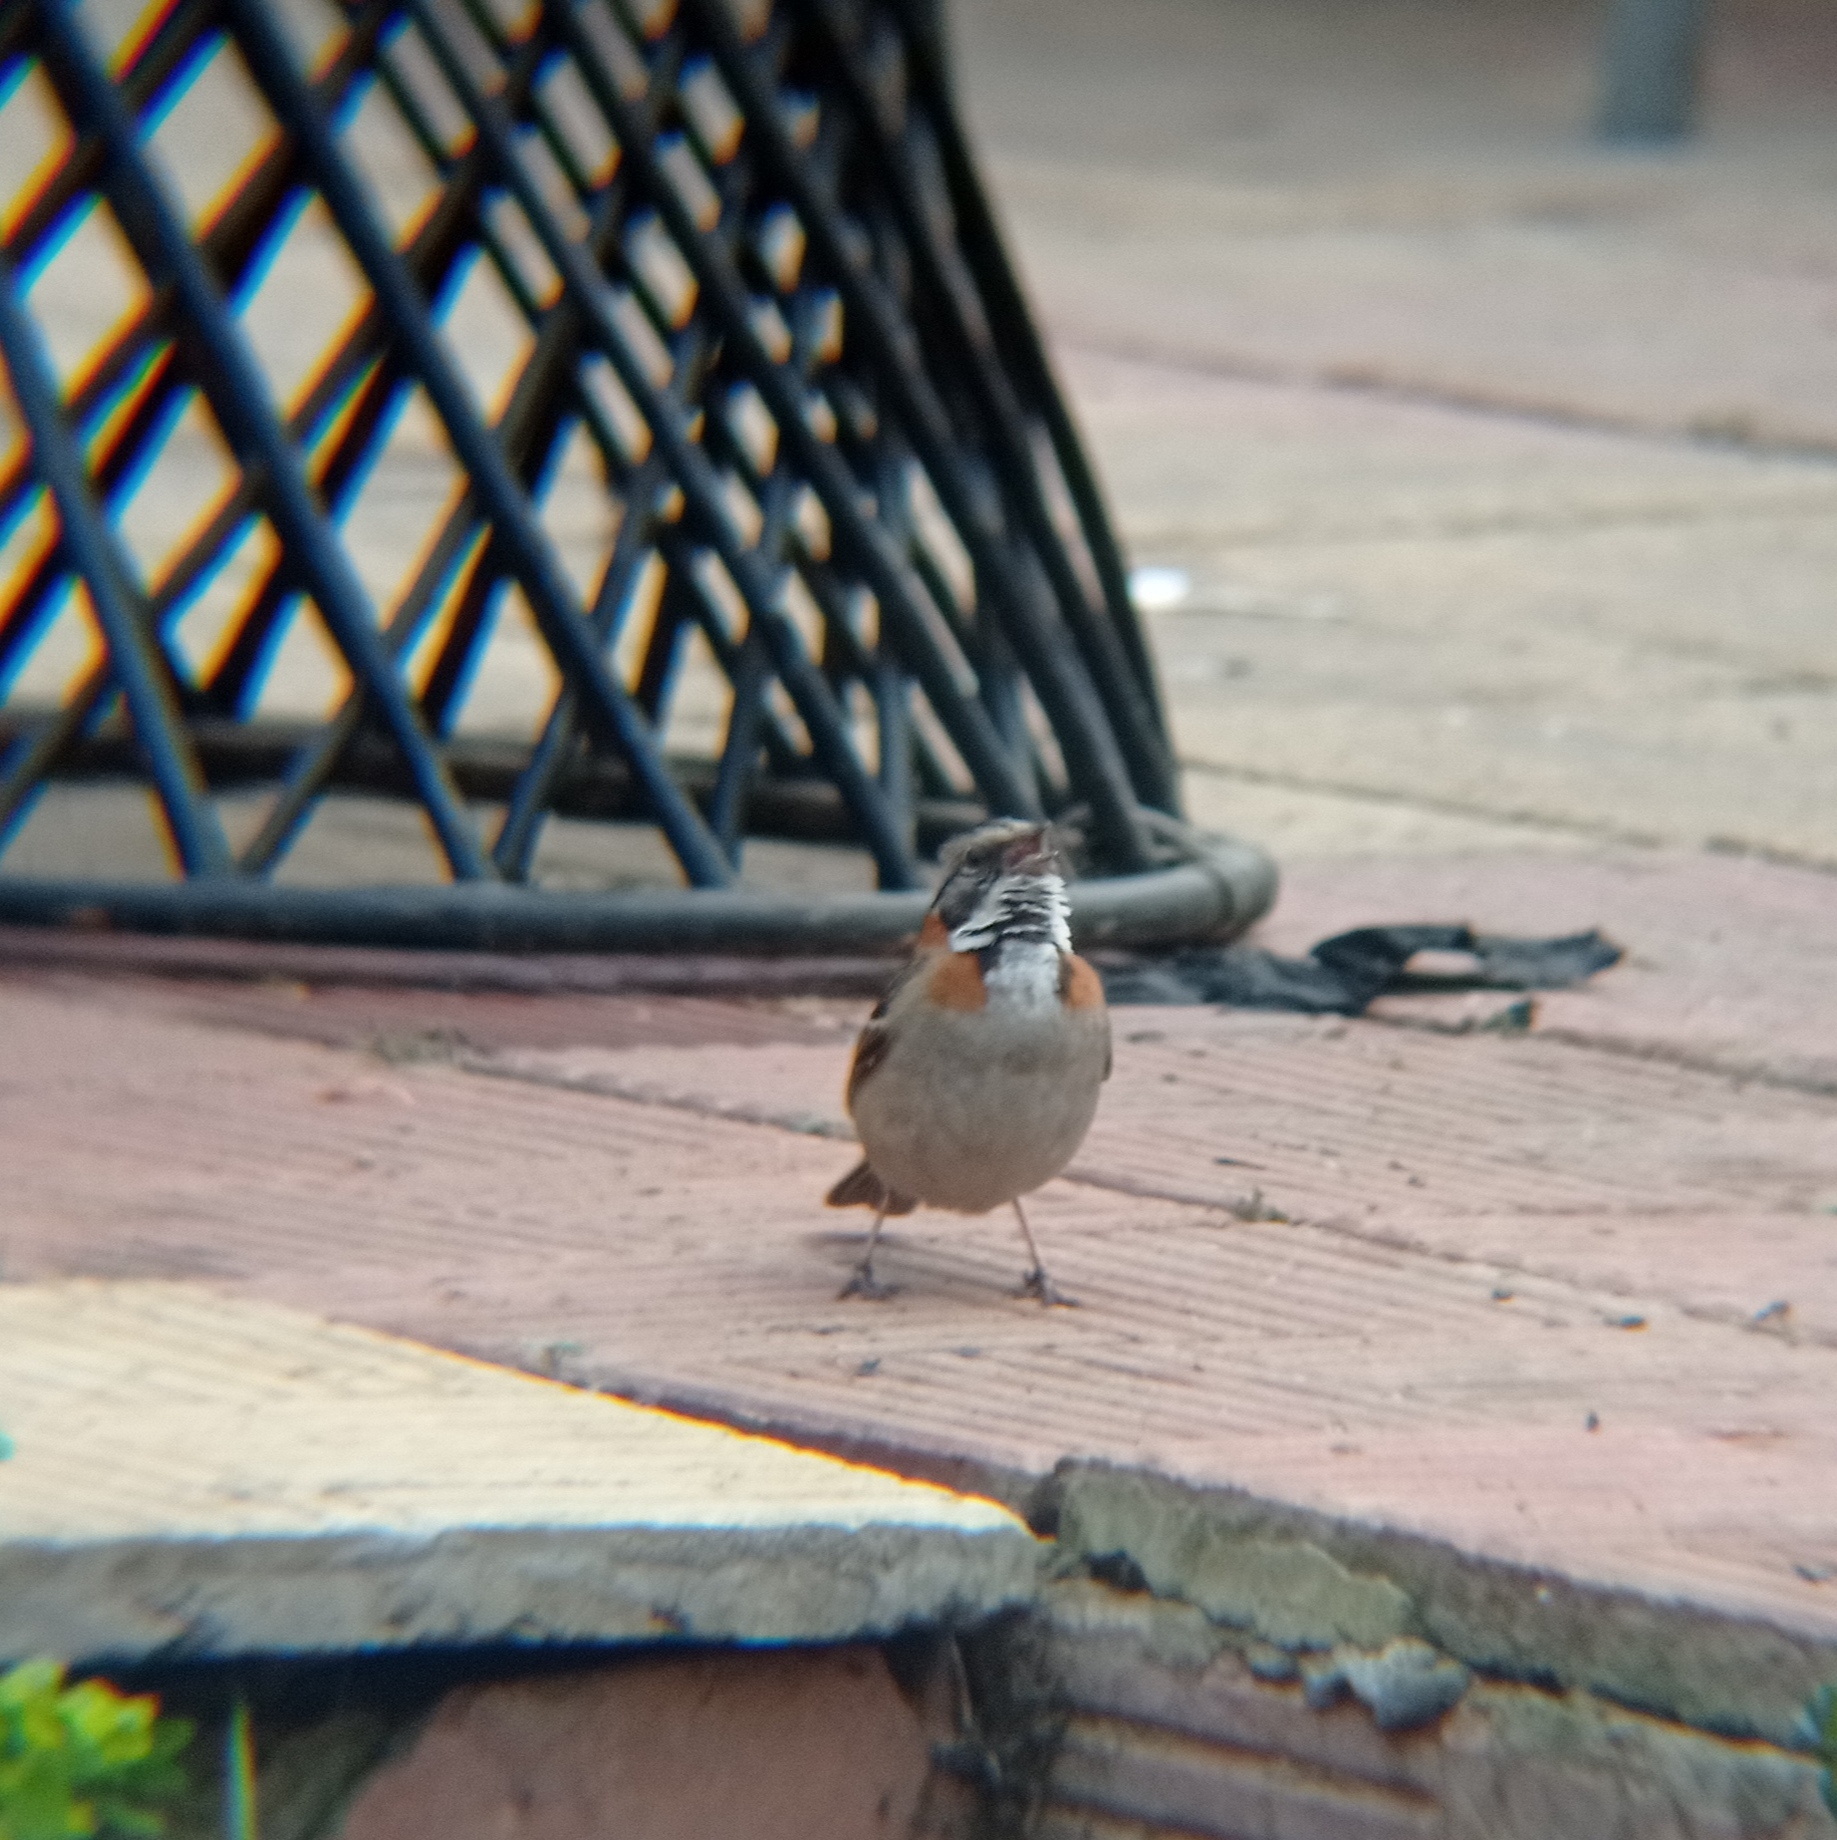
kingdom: Animalia
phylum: Chordata
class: Aves
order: Passeriformes
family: Passerellidae
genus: Zonotrichia
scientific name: Zonotrichia capensis
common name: Rufous-collared sparrow
